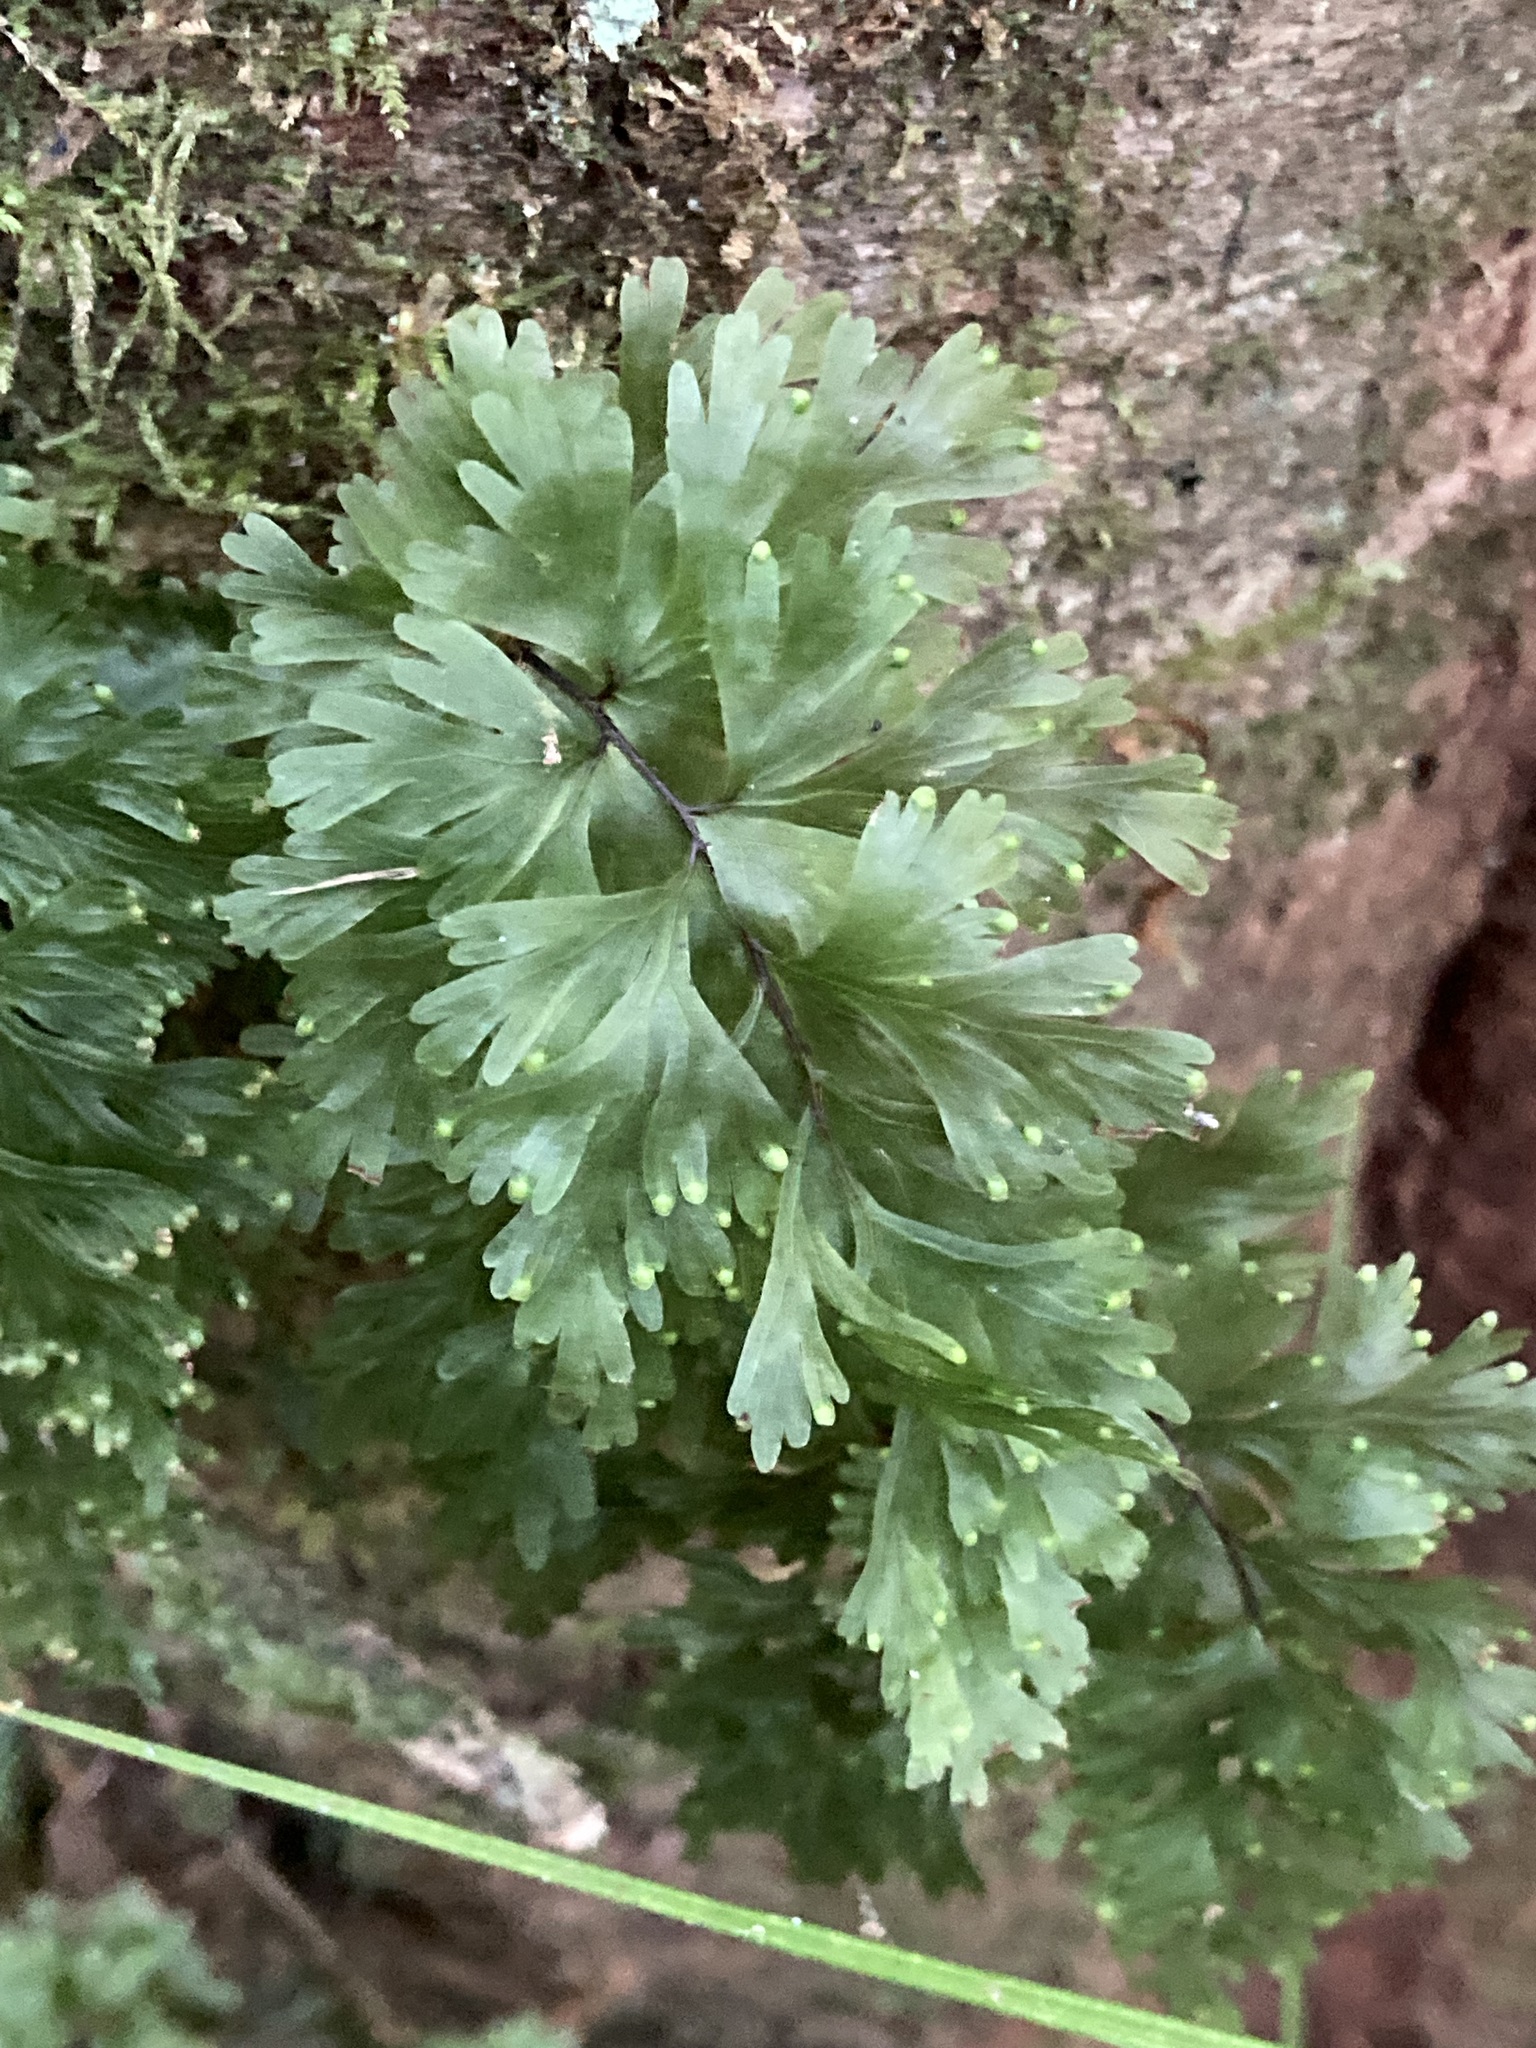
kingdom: Plantae
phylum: Tracheophyta
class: Polypodiopsida
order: Hymenophyllales
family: Hymenophyllaceae
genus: Hymenophyllum
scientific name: Hymenophyllum flabellatum
